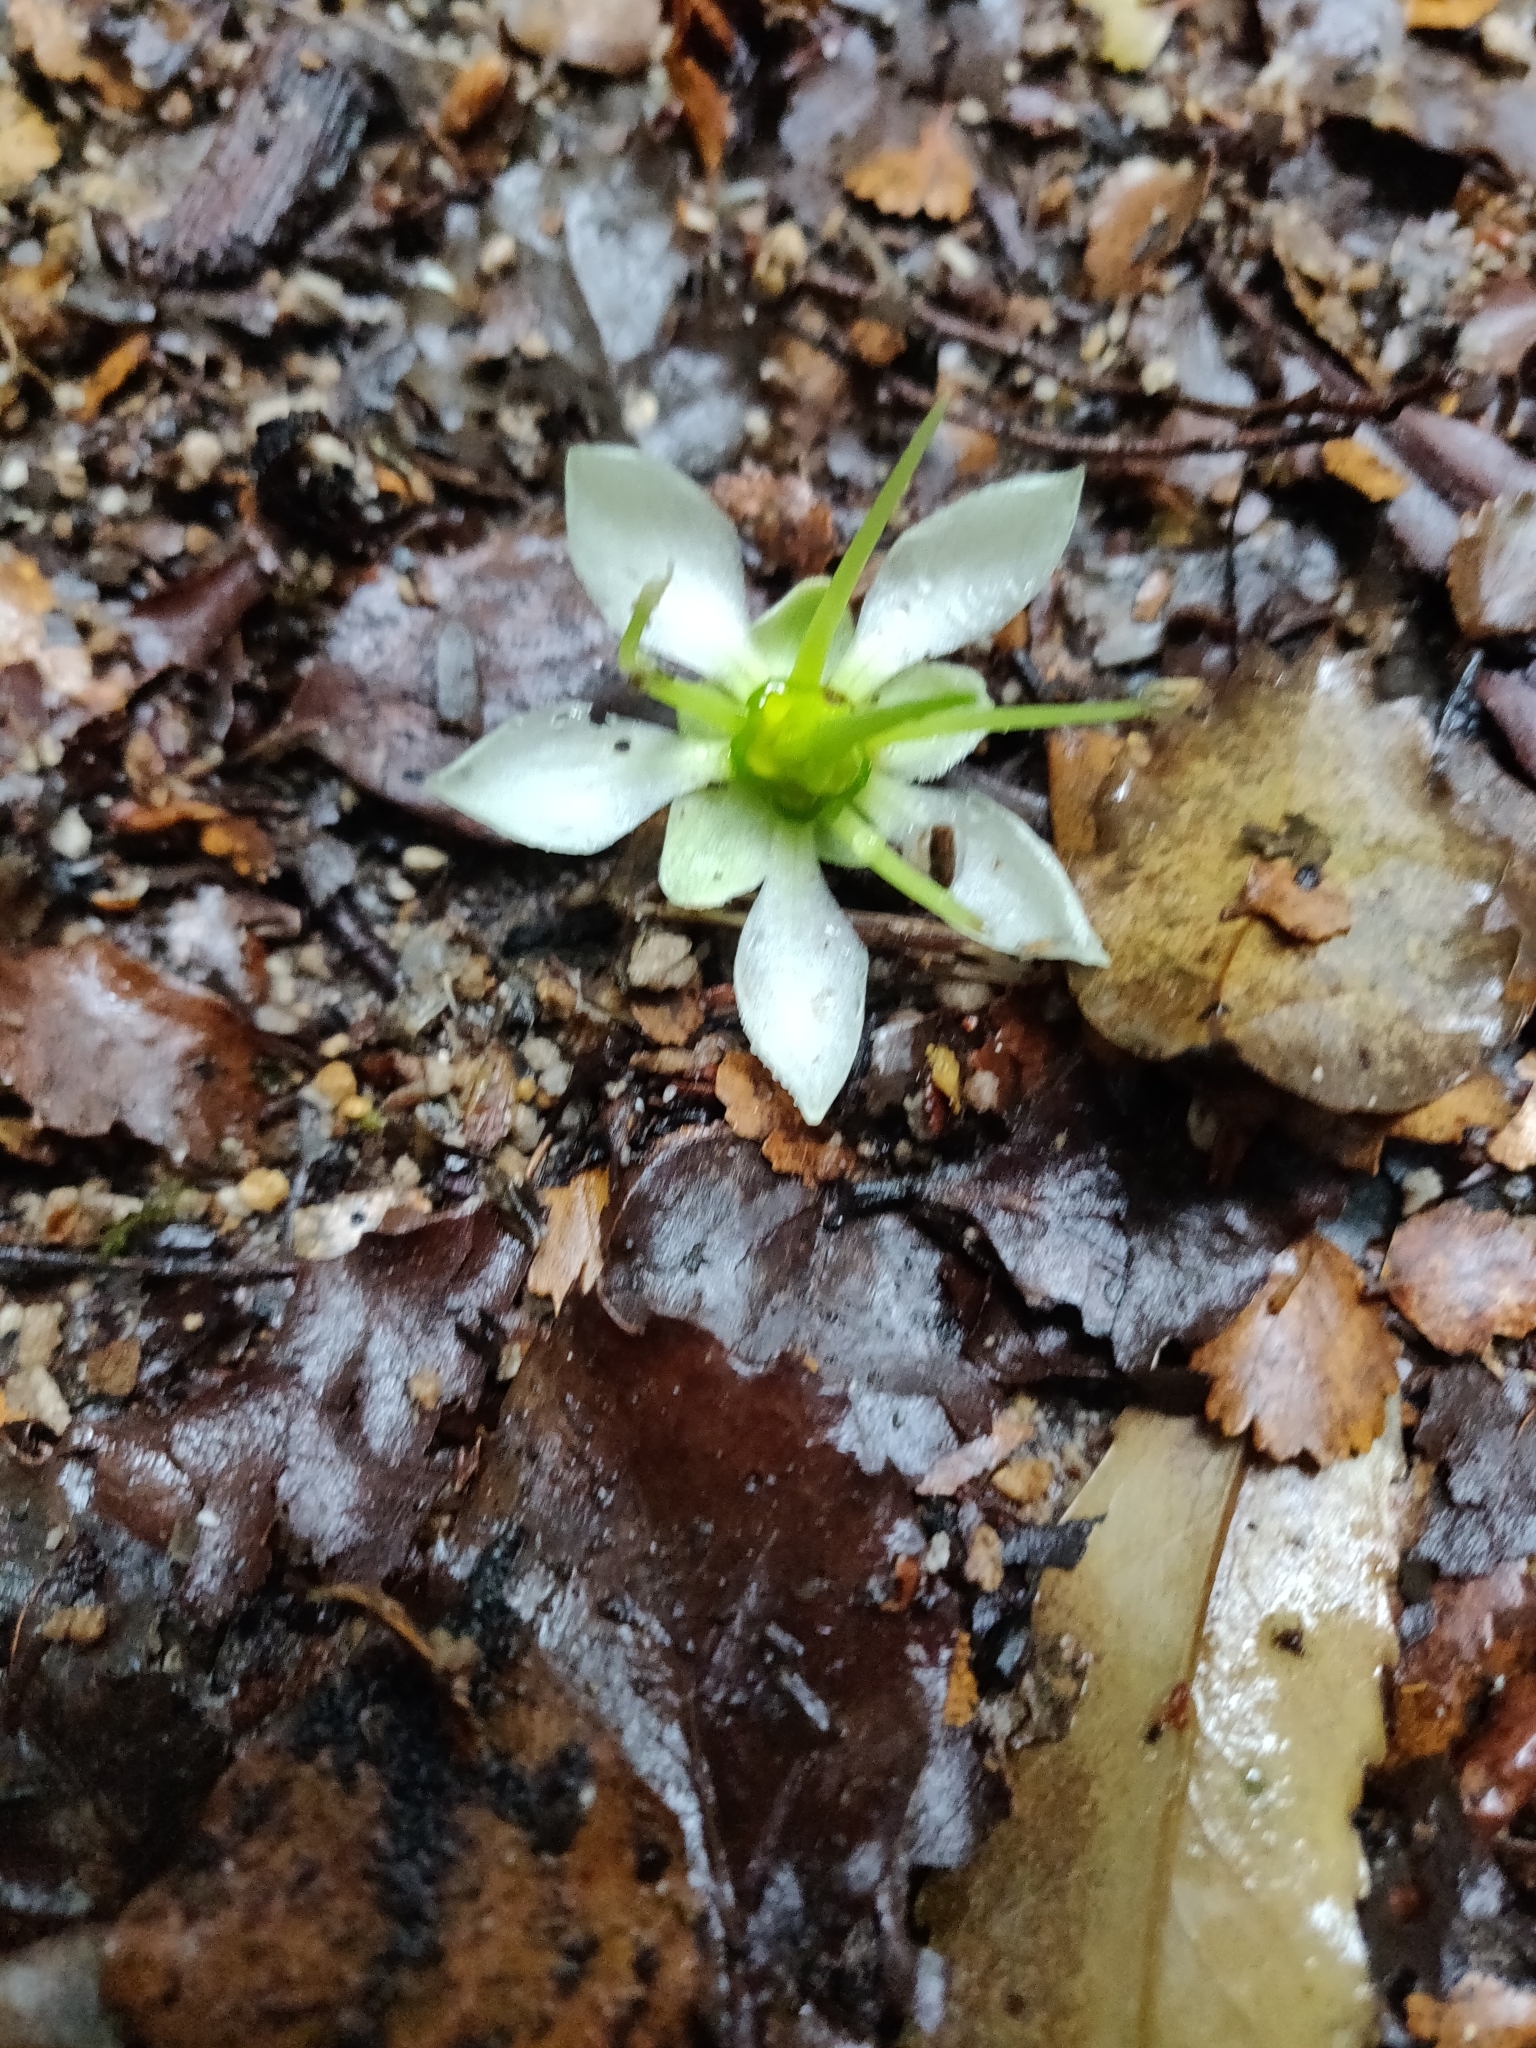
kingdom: Plantae
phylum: Tracheophyta
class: Magnoliopsida
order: Crossosomatales
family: Ixerbaceae
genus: Ixerba
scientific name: Ixerba brexioides
